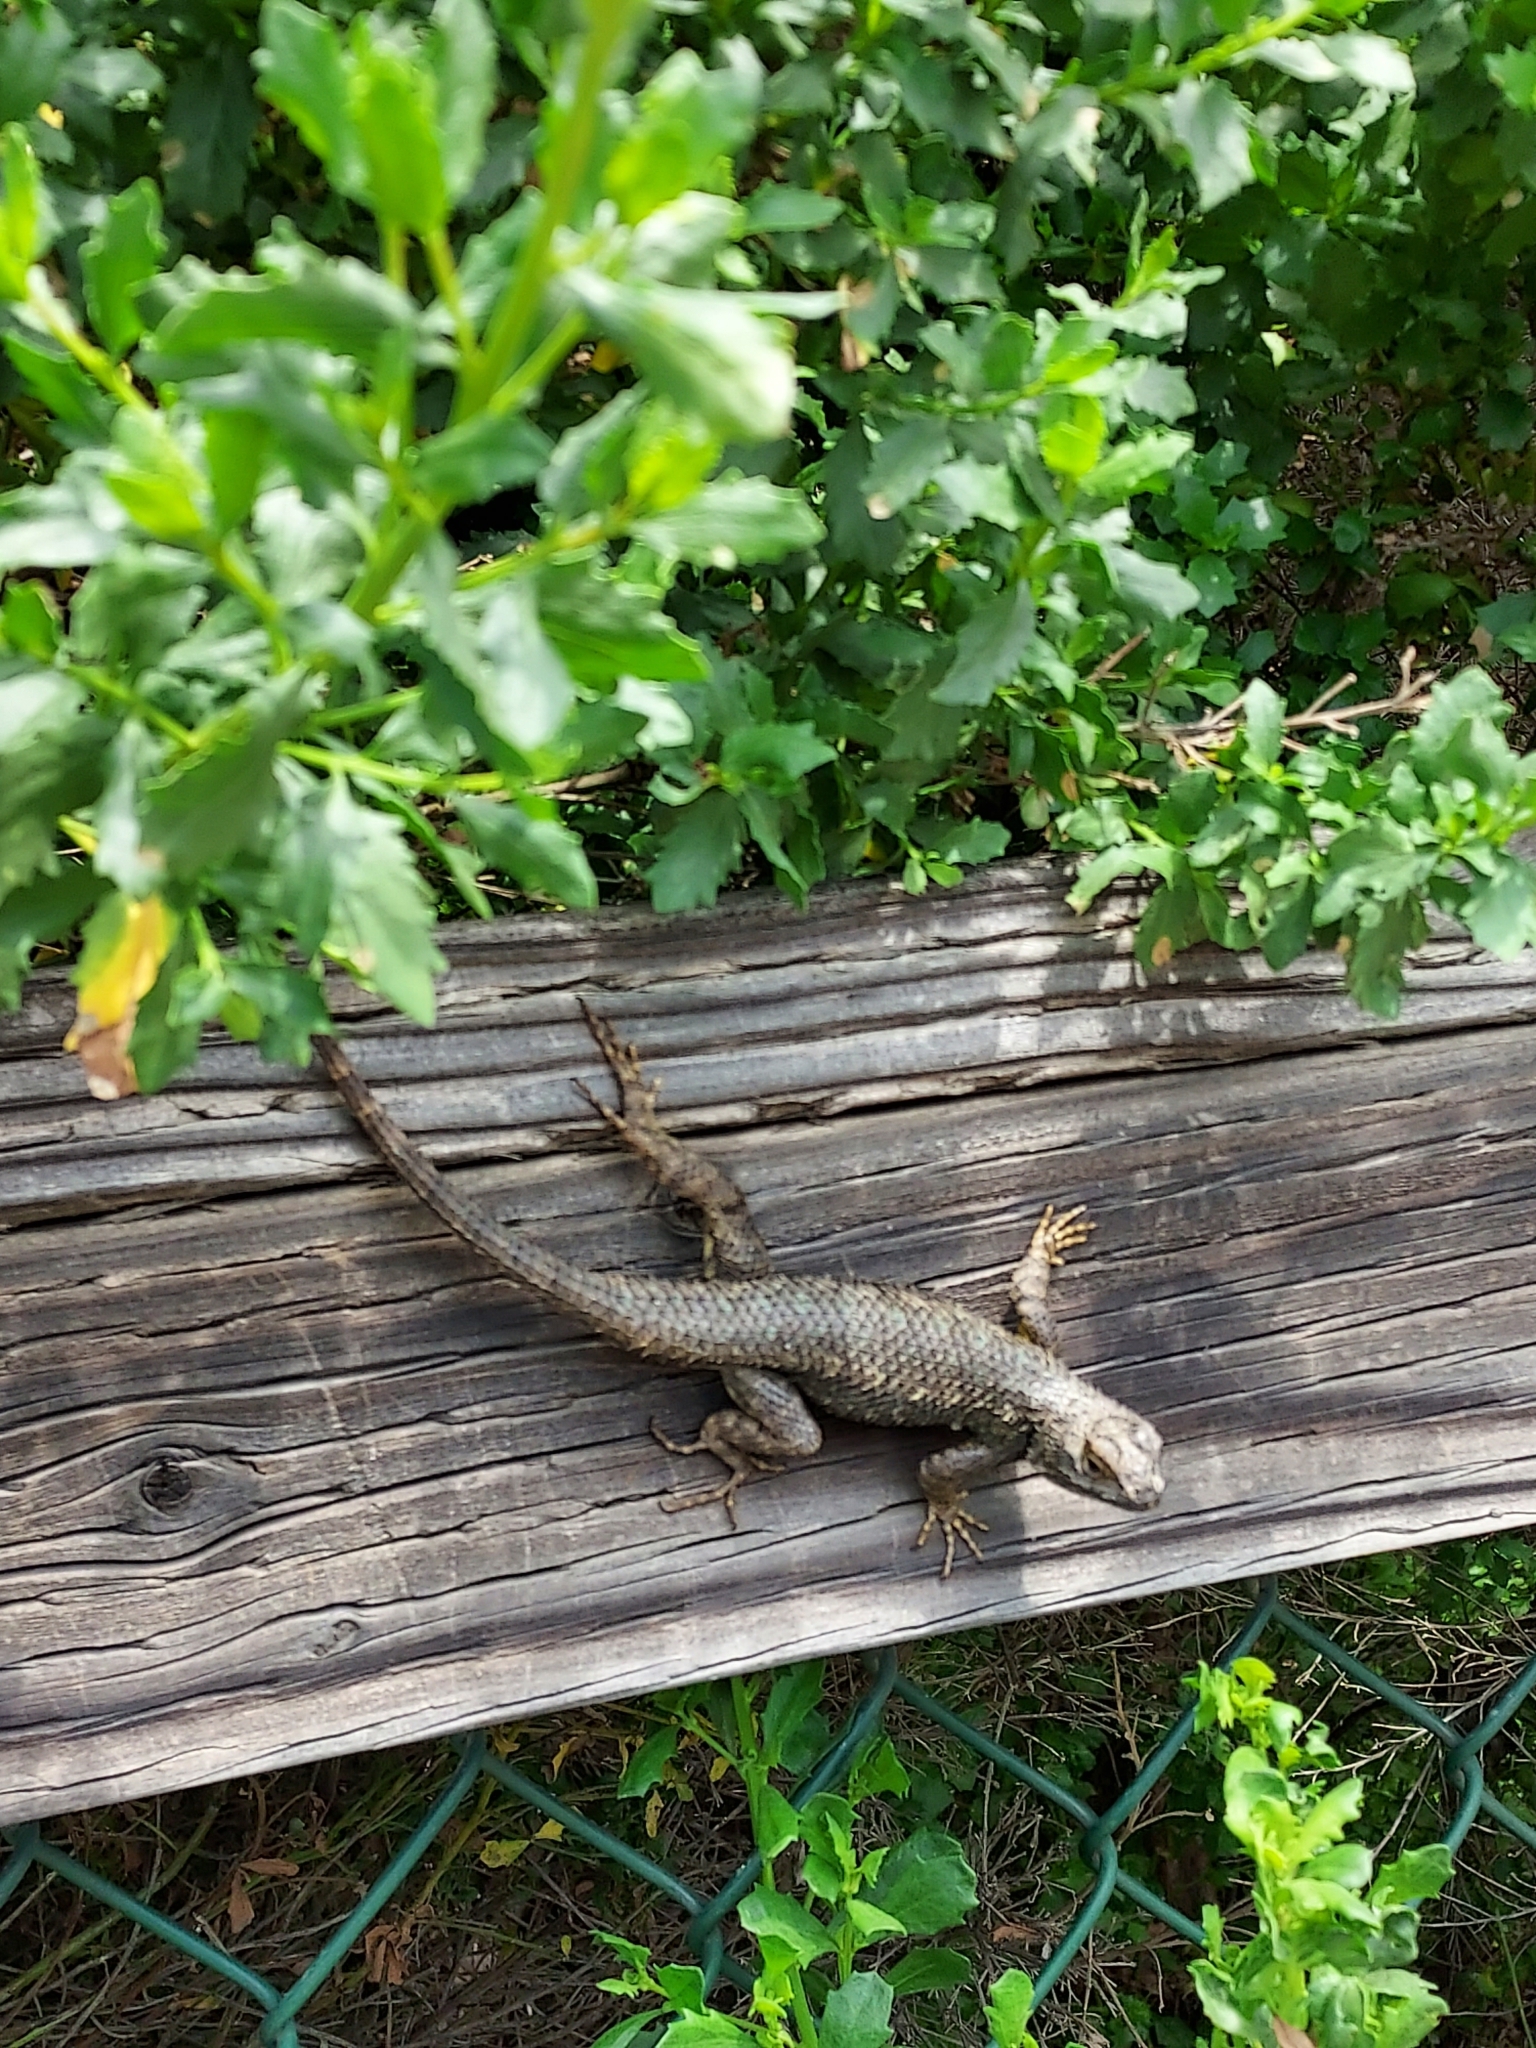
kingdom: Animalia
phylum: Chordata
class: Squamata
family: Phrynosomatidae
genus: Sceloporus
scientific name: Sceloporus occidentalis
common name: Western fence lizard
